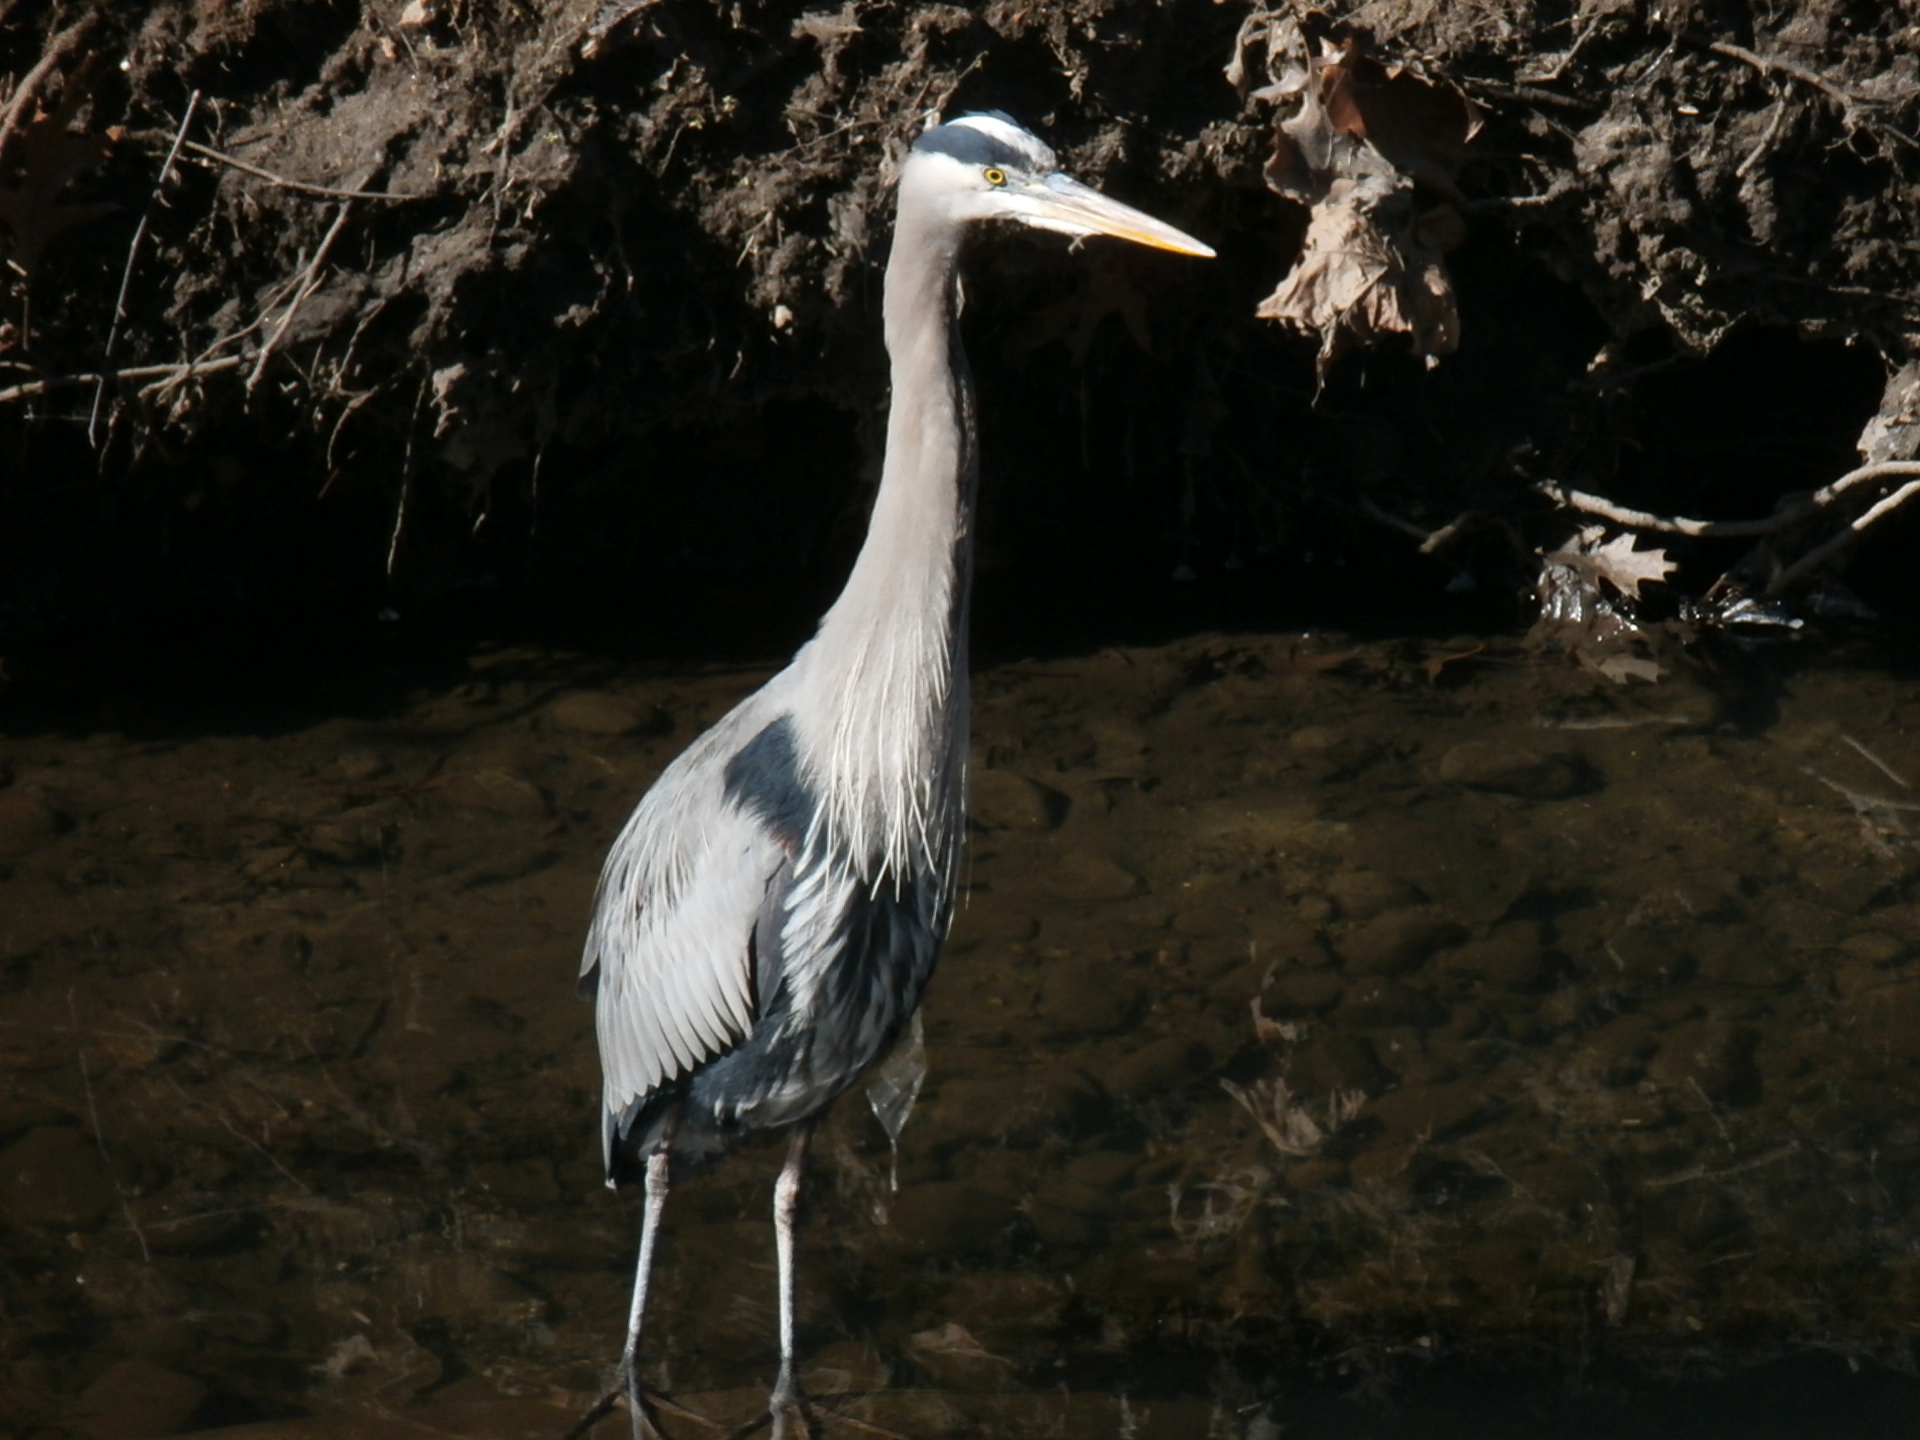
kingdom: Animalia
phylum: Chordata
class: Aves
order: Pelecaniformes
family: Ardeidae
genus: Ardea
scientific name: Ardea herodias
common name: Great blue heron
